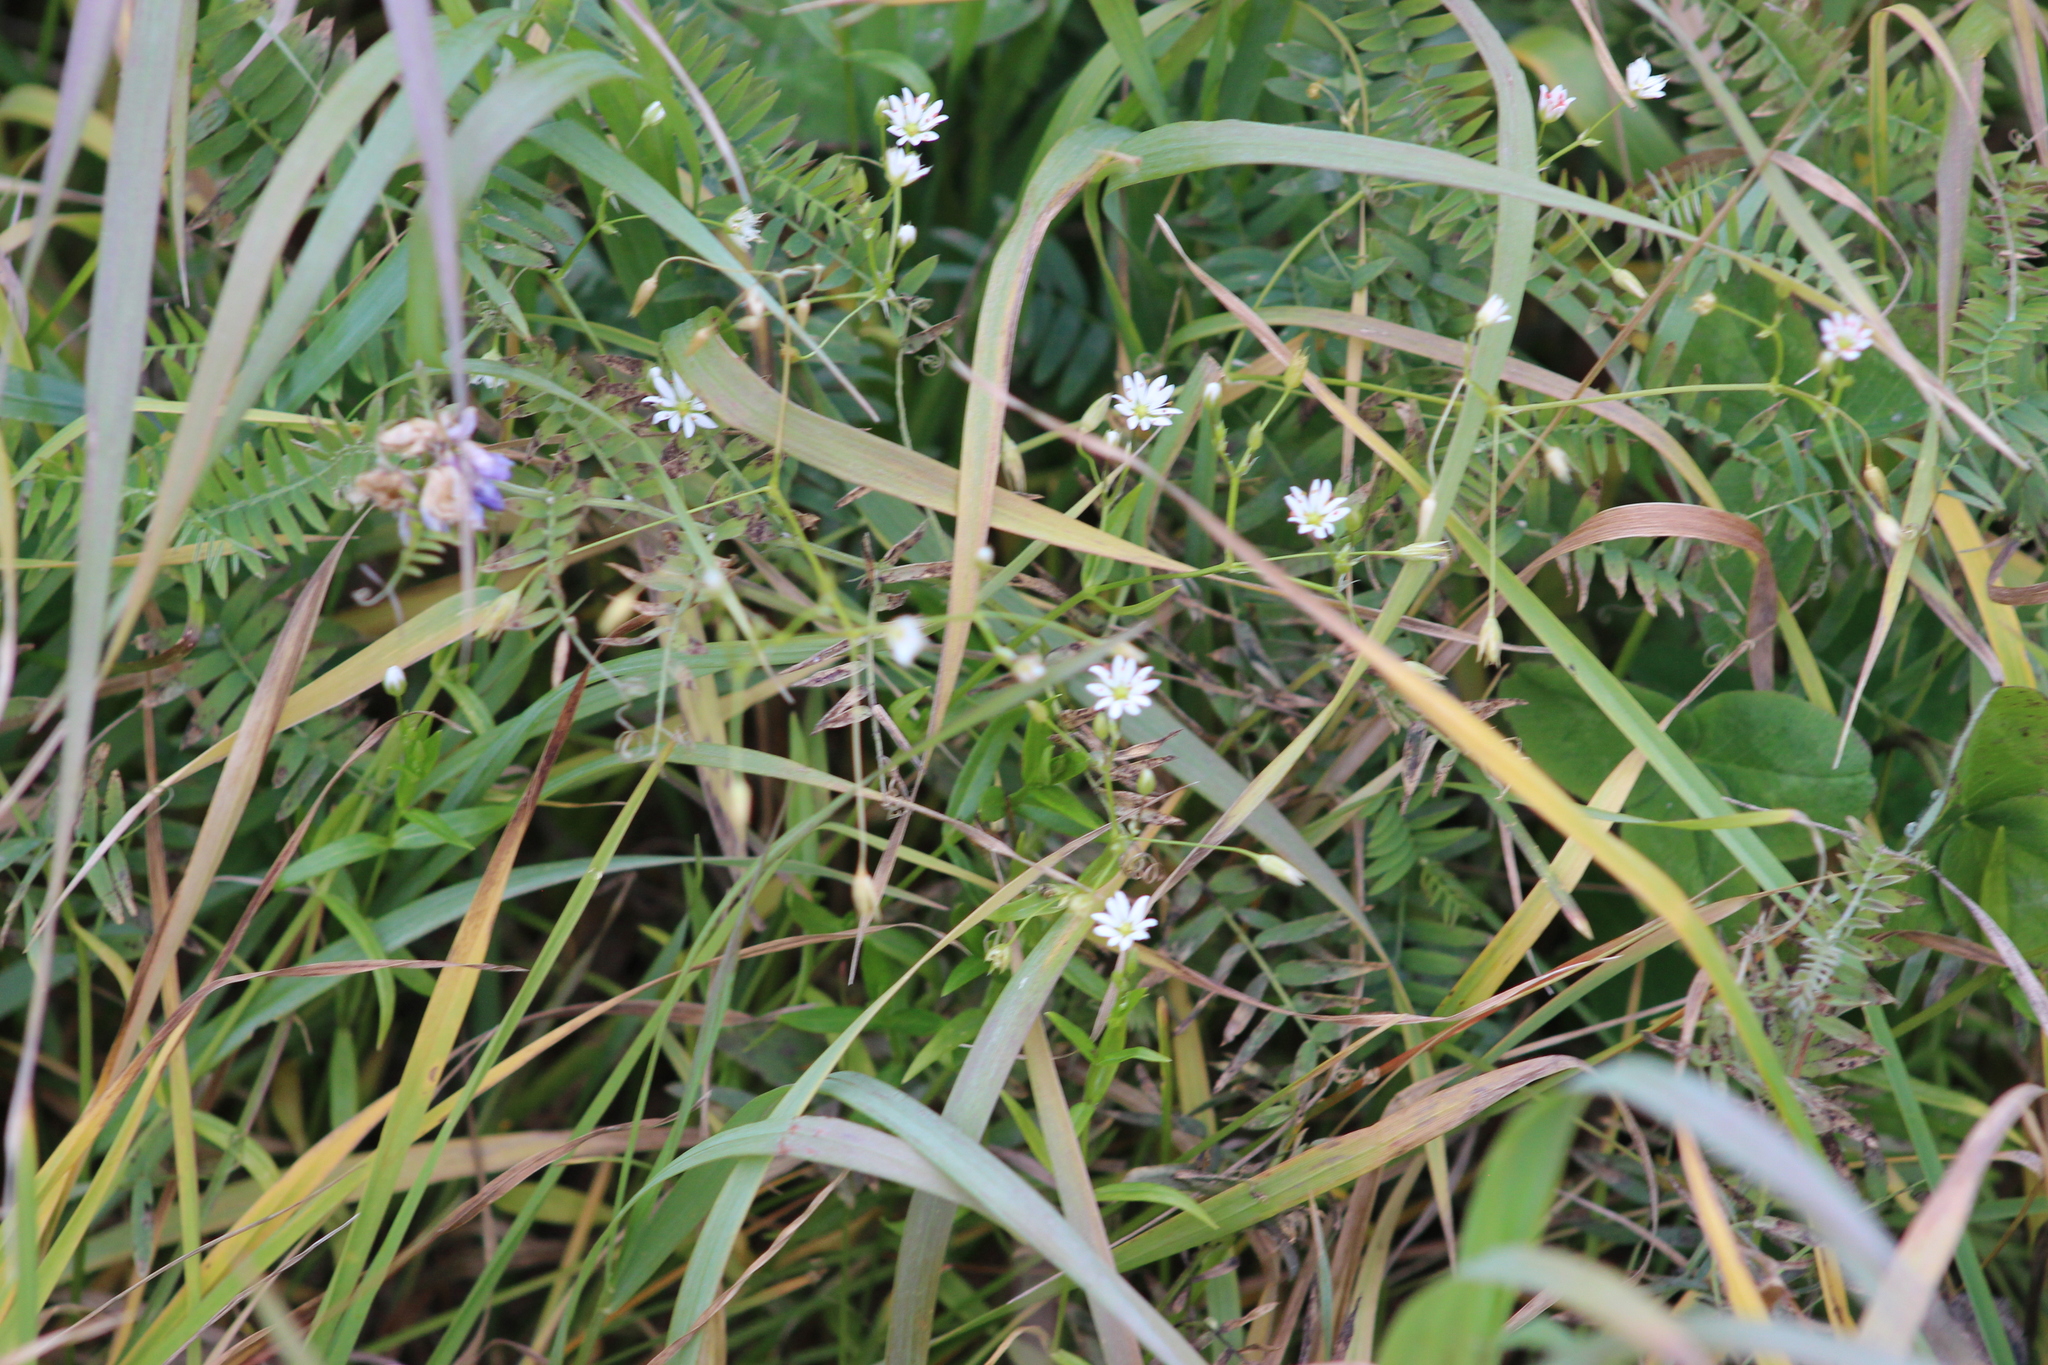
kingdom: Plantae
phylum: Tracheophyta
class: Magnoliopsida
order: Caryophyllales
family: Caryophyllaceae
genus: Stellaria
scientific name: Stellaria graminea
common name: Grass-like starwort
